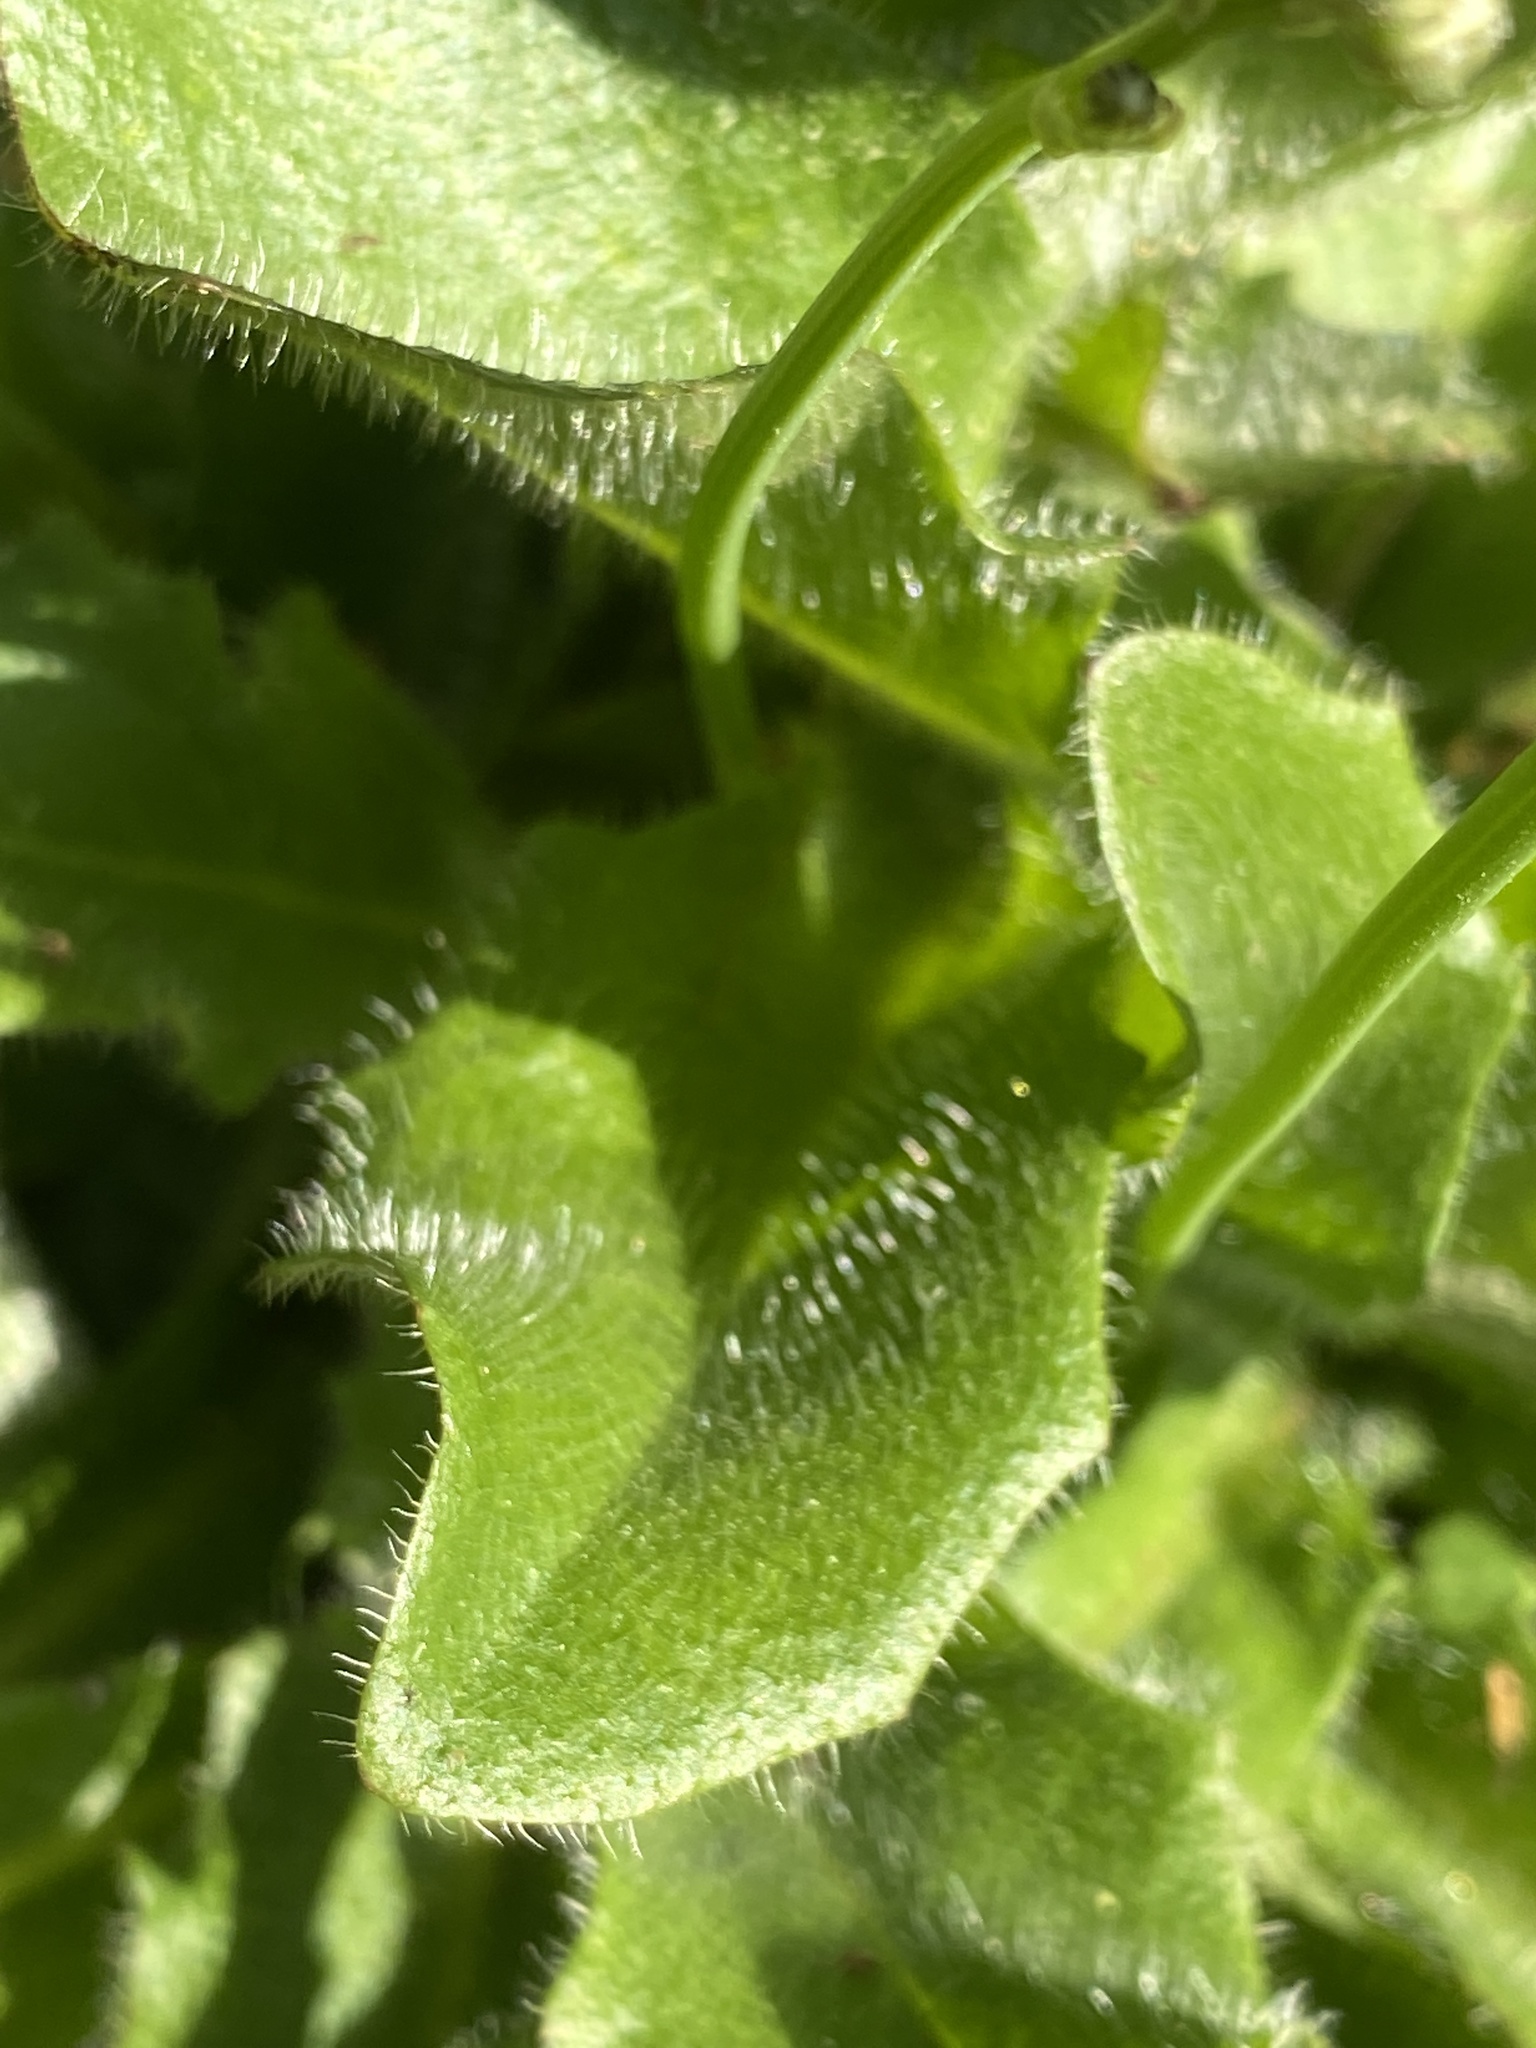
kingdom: Plantae
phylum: Tracheophyta
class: Magnoliopsida
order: Asterales
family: Asteraceae
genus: Hypochaeris
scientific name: Hypochaeris radicata
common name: Flatweed
